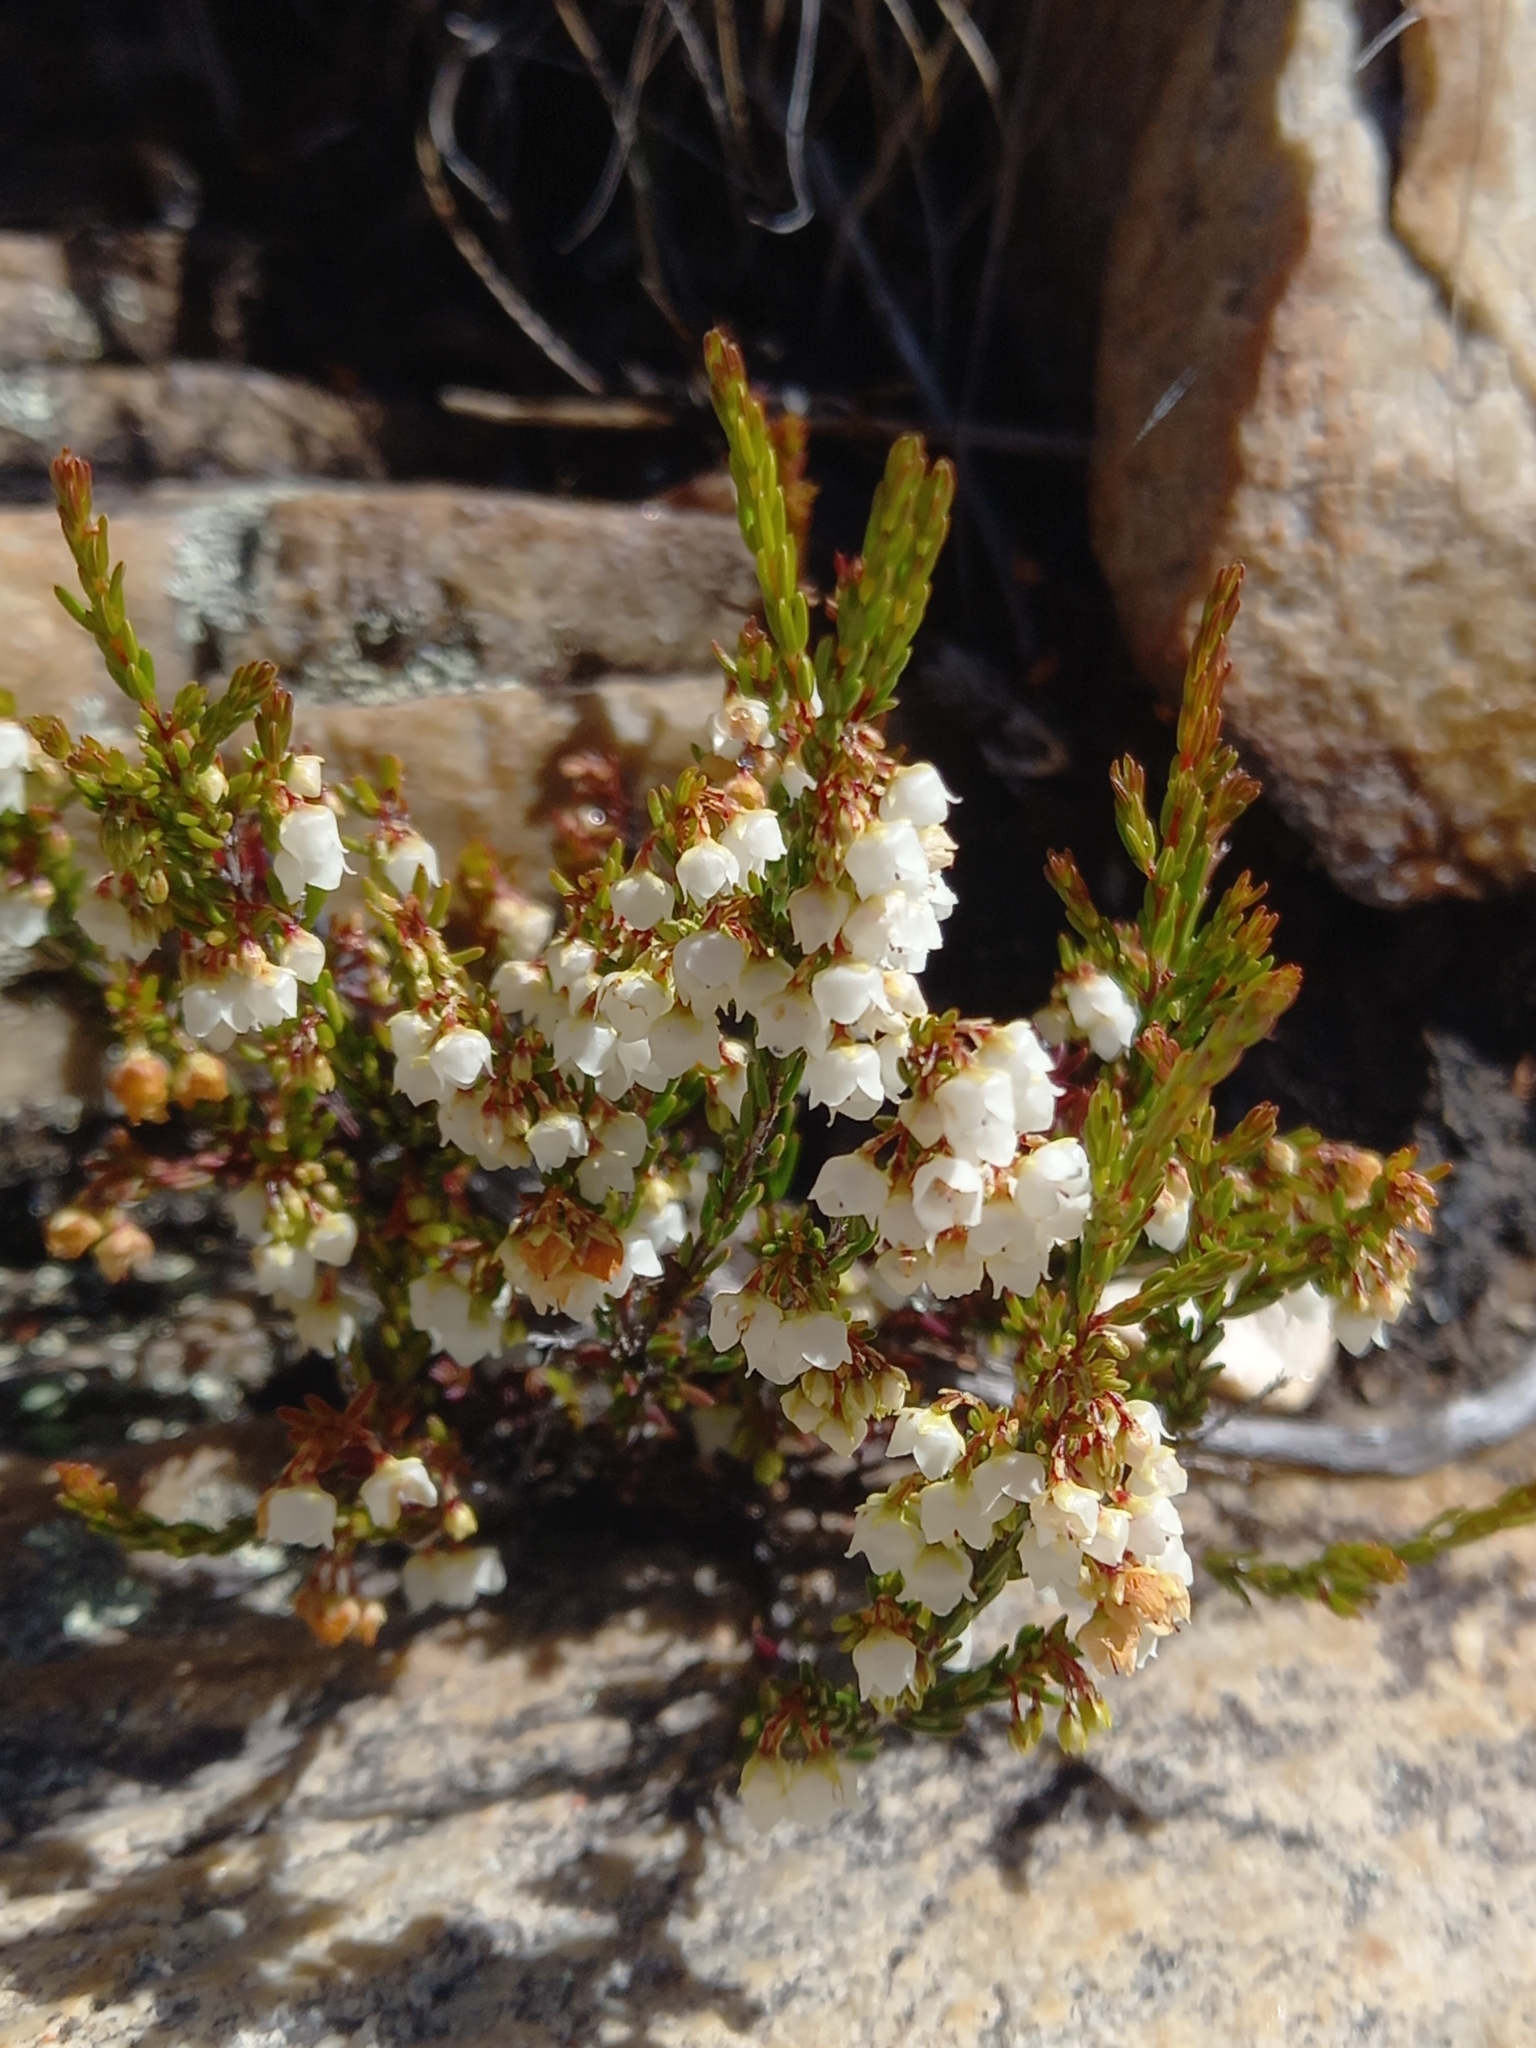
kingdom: Plantae
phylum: Tracheophyta
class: Magnoliopsida
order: Ericales
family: Ericaceae
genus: Erica
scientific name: Erica tenuis
